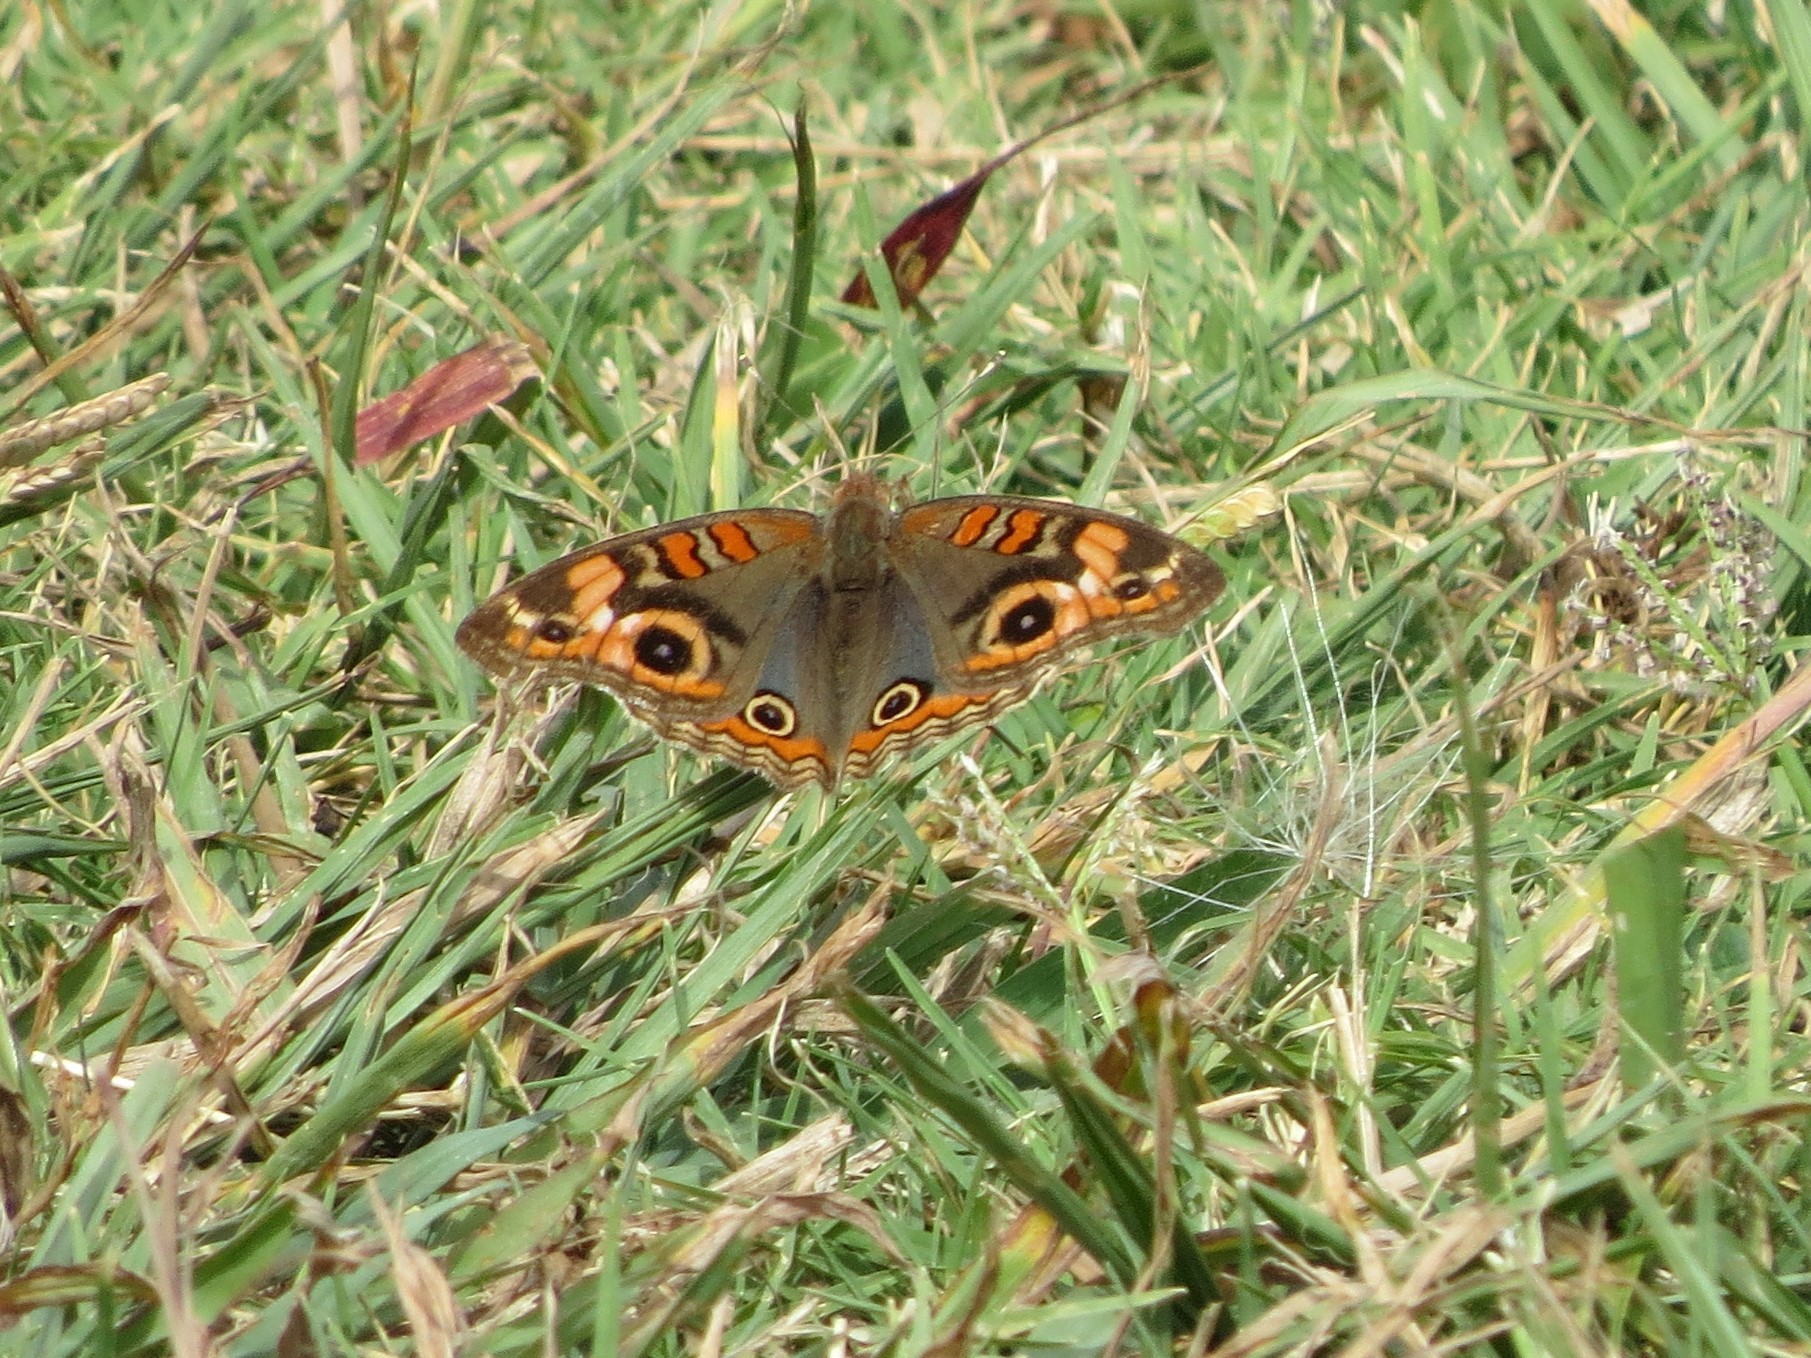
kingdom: Animalia
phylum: Arthropoda
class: Insecta
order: Lepidoptera
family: Nymphalidae
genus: Junonia
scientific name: Junonia lavinia
